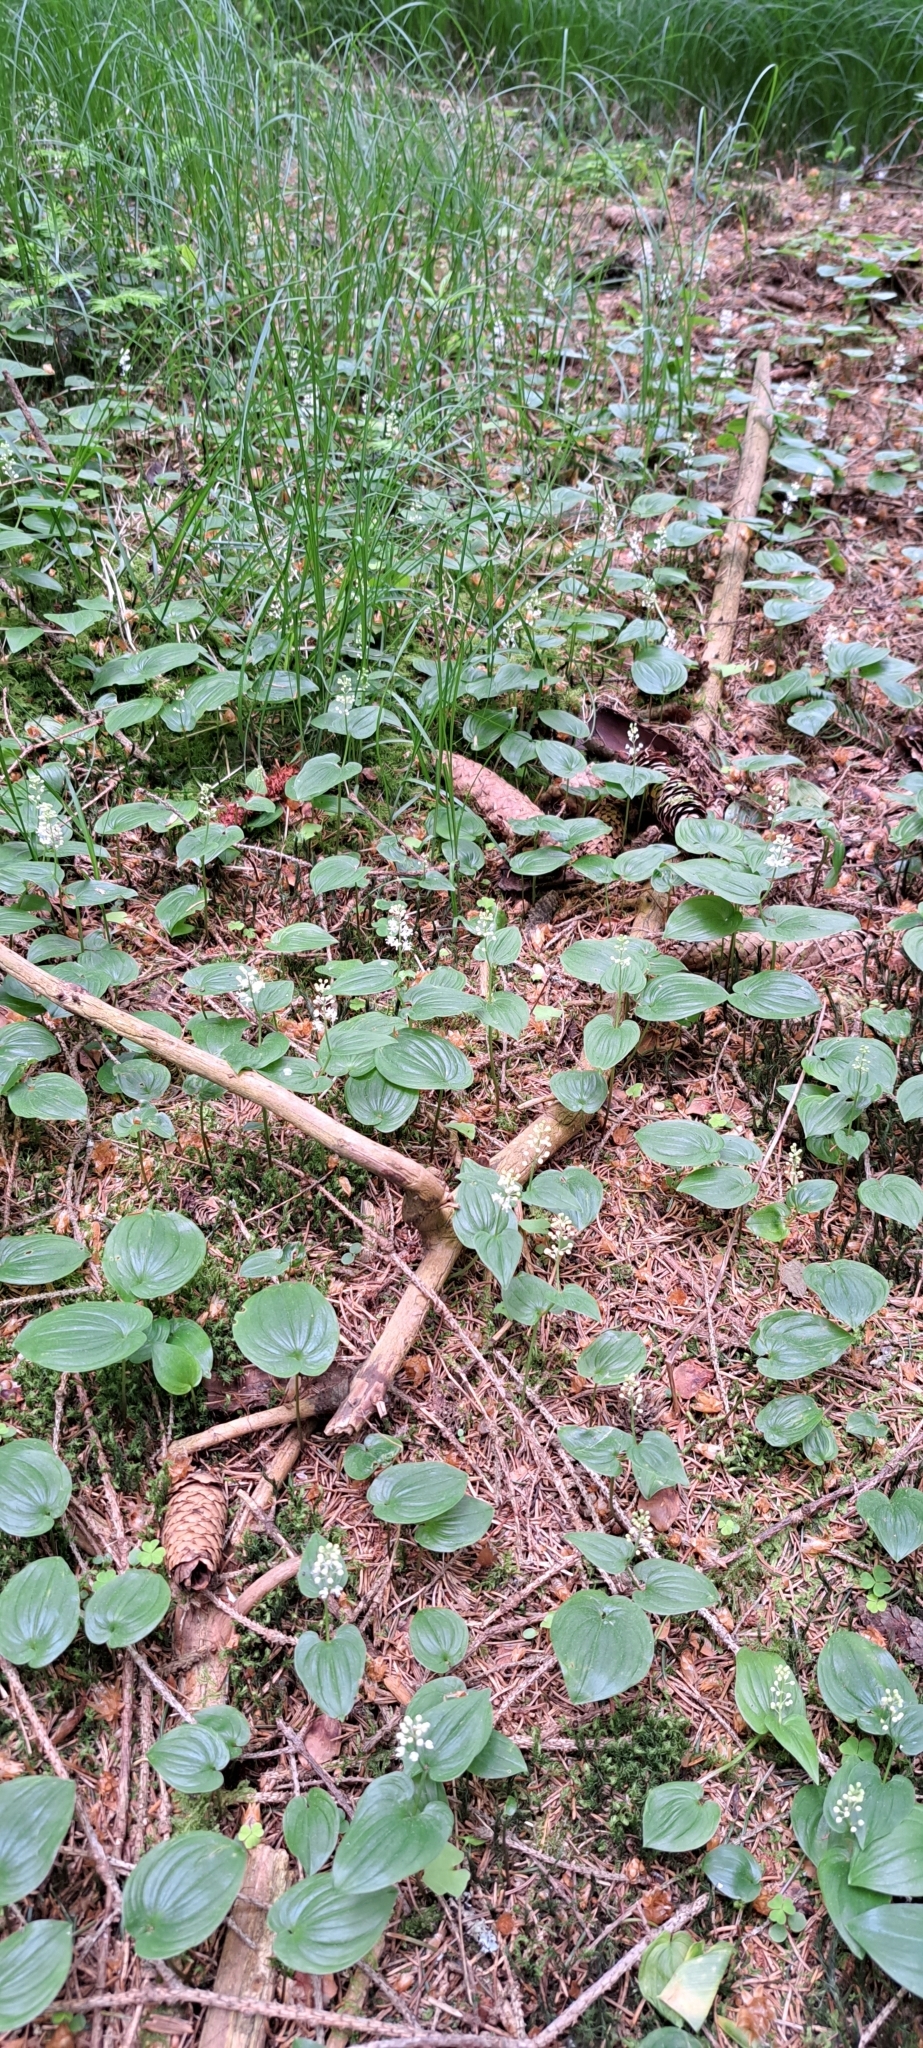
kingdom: Plantae
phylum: Tracheophyta
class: Liliopsida
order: Asparagales
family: Asparagaceae
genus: Maianthemum
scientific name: Maianthemum bifolium
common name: May lily
